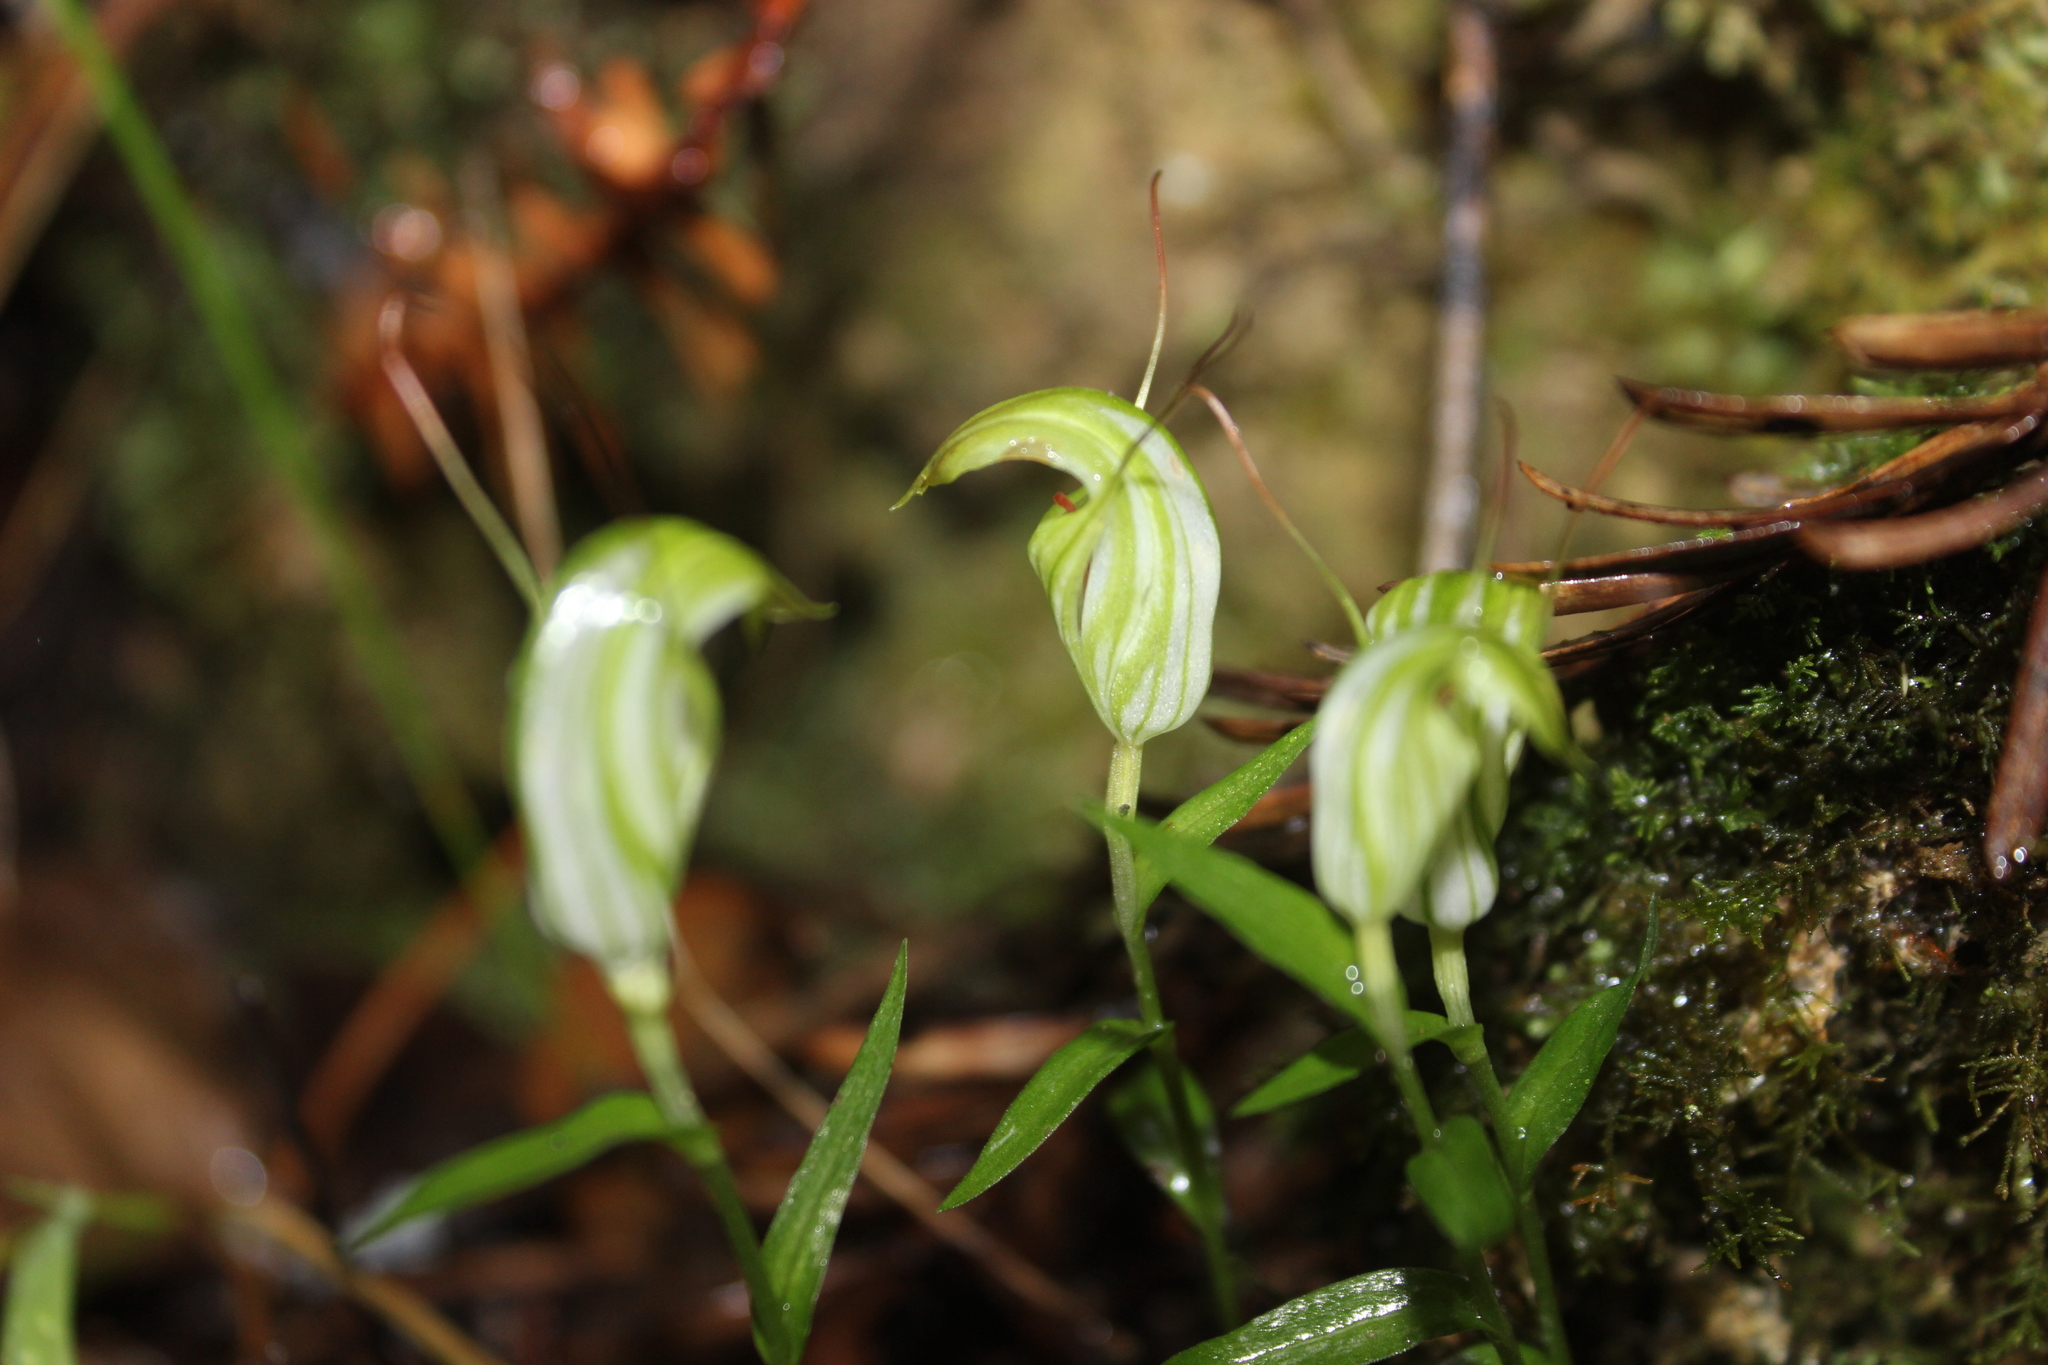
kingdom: Plantae
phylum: Tracheophyta
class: Liliopsida
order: Asparagales
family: Orchidaceae
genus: Pterostylis
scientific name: Pterostylis alobula
